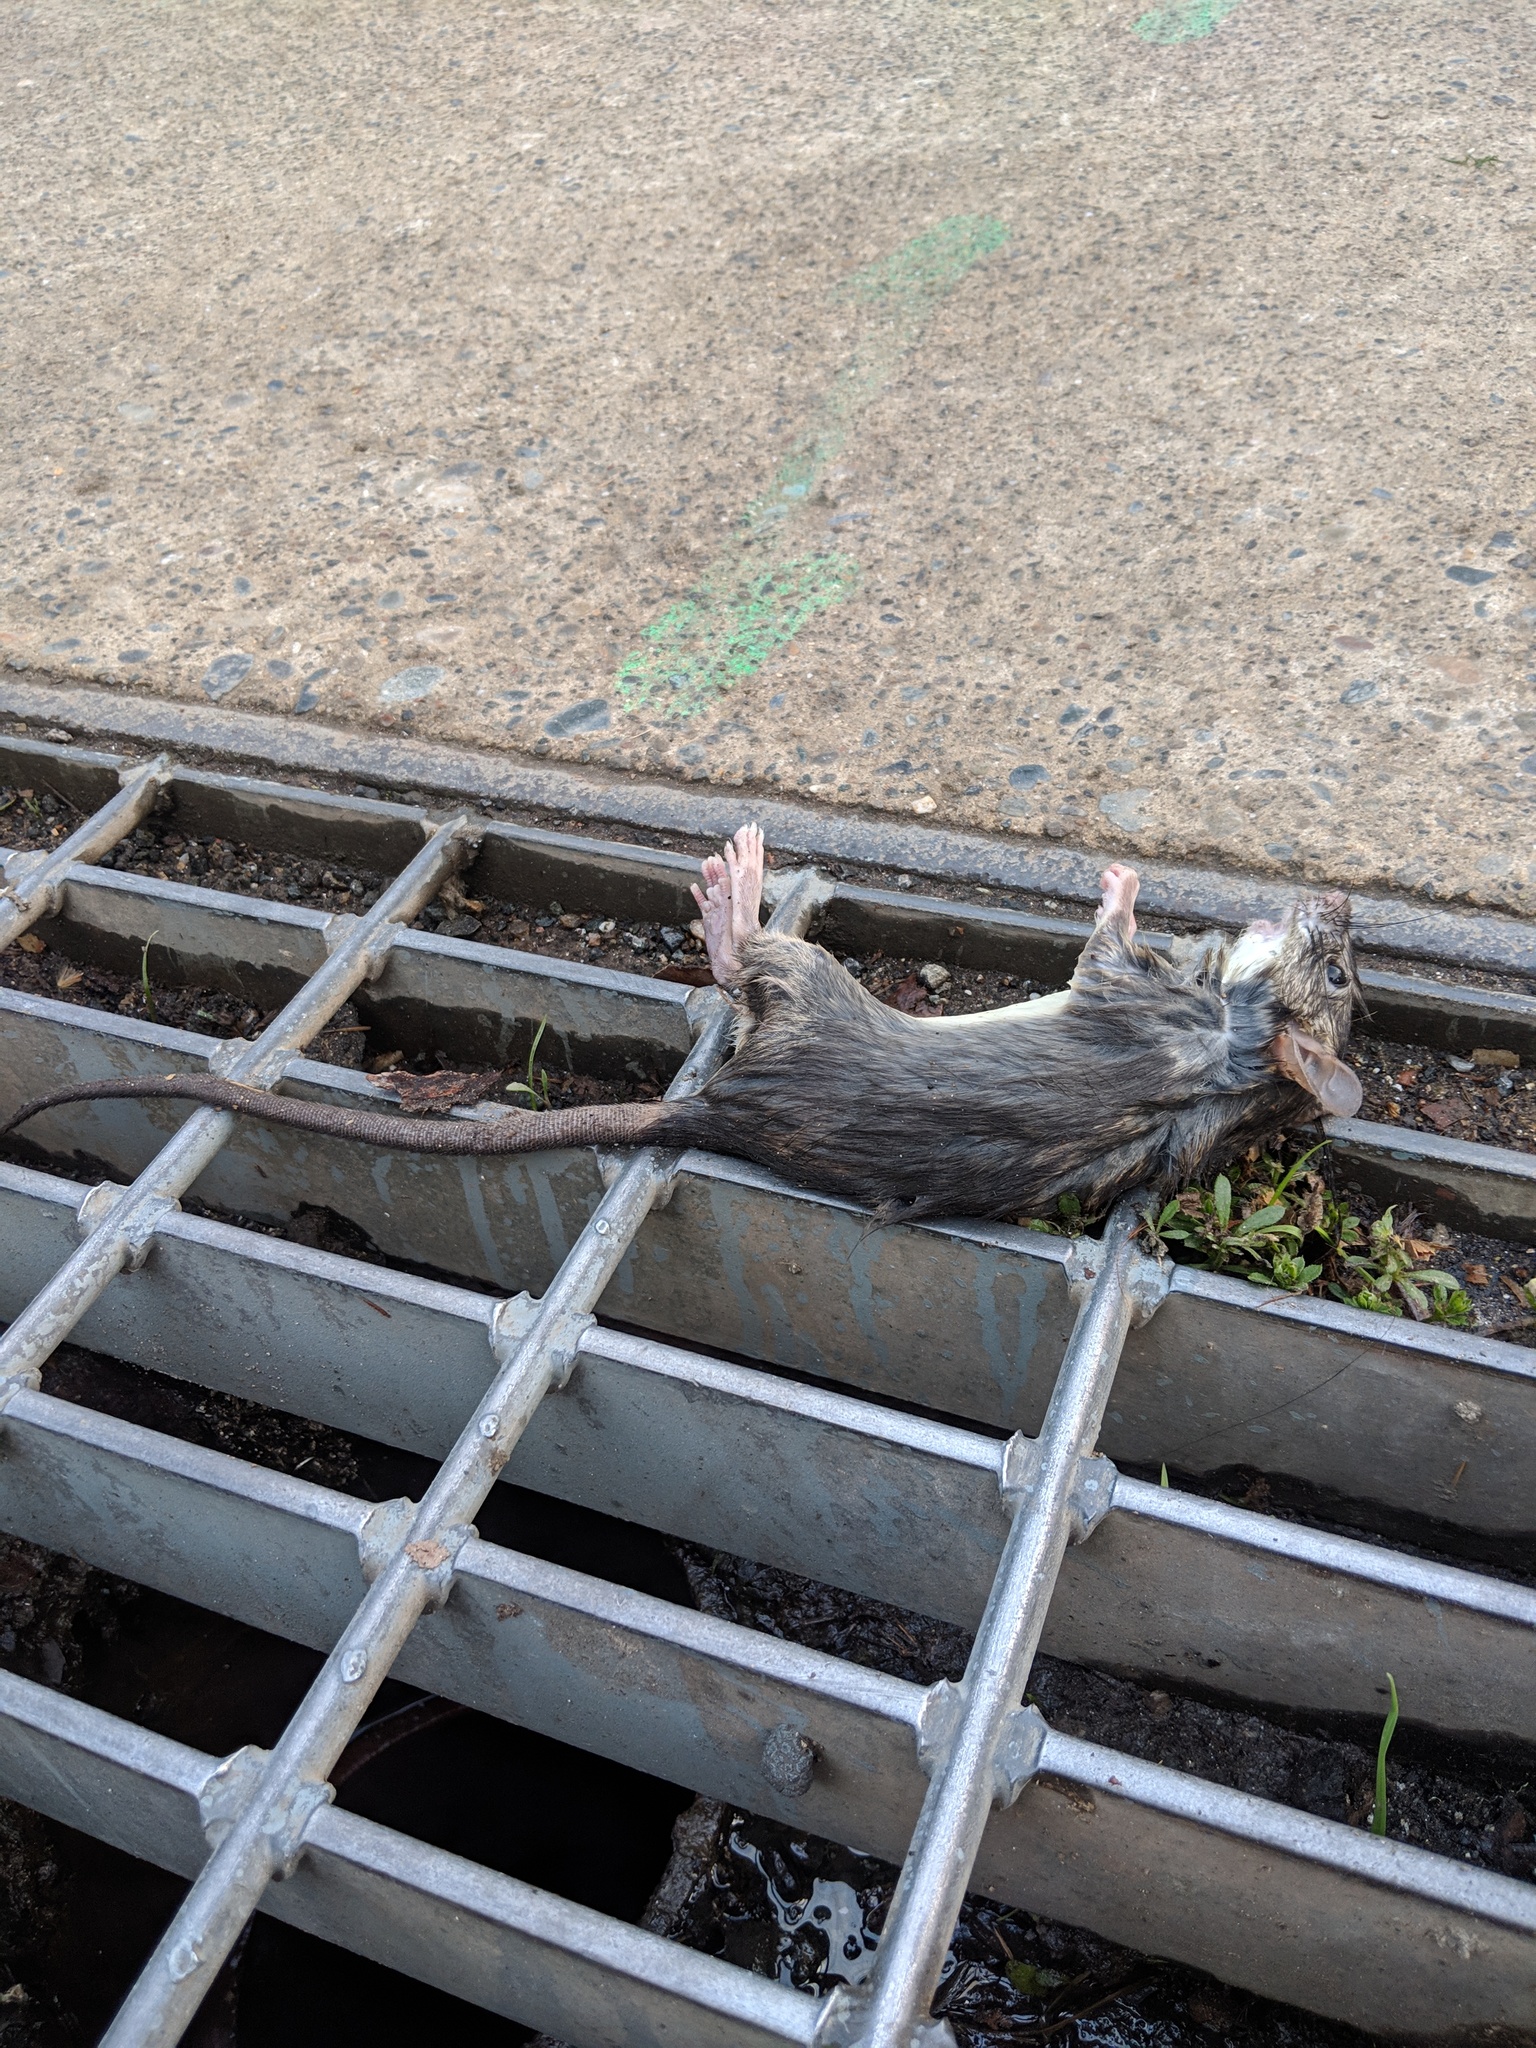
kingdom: Animalia
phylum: Chordata
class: Mammalia
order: Rodentia
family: Muridae
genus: Rattus
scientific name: Rattus rattus
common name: Black rat
